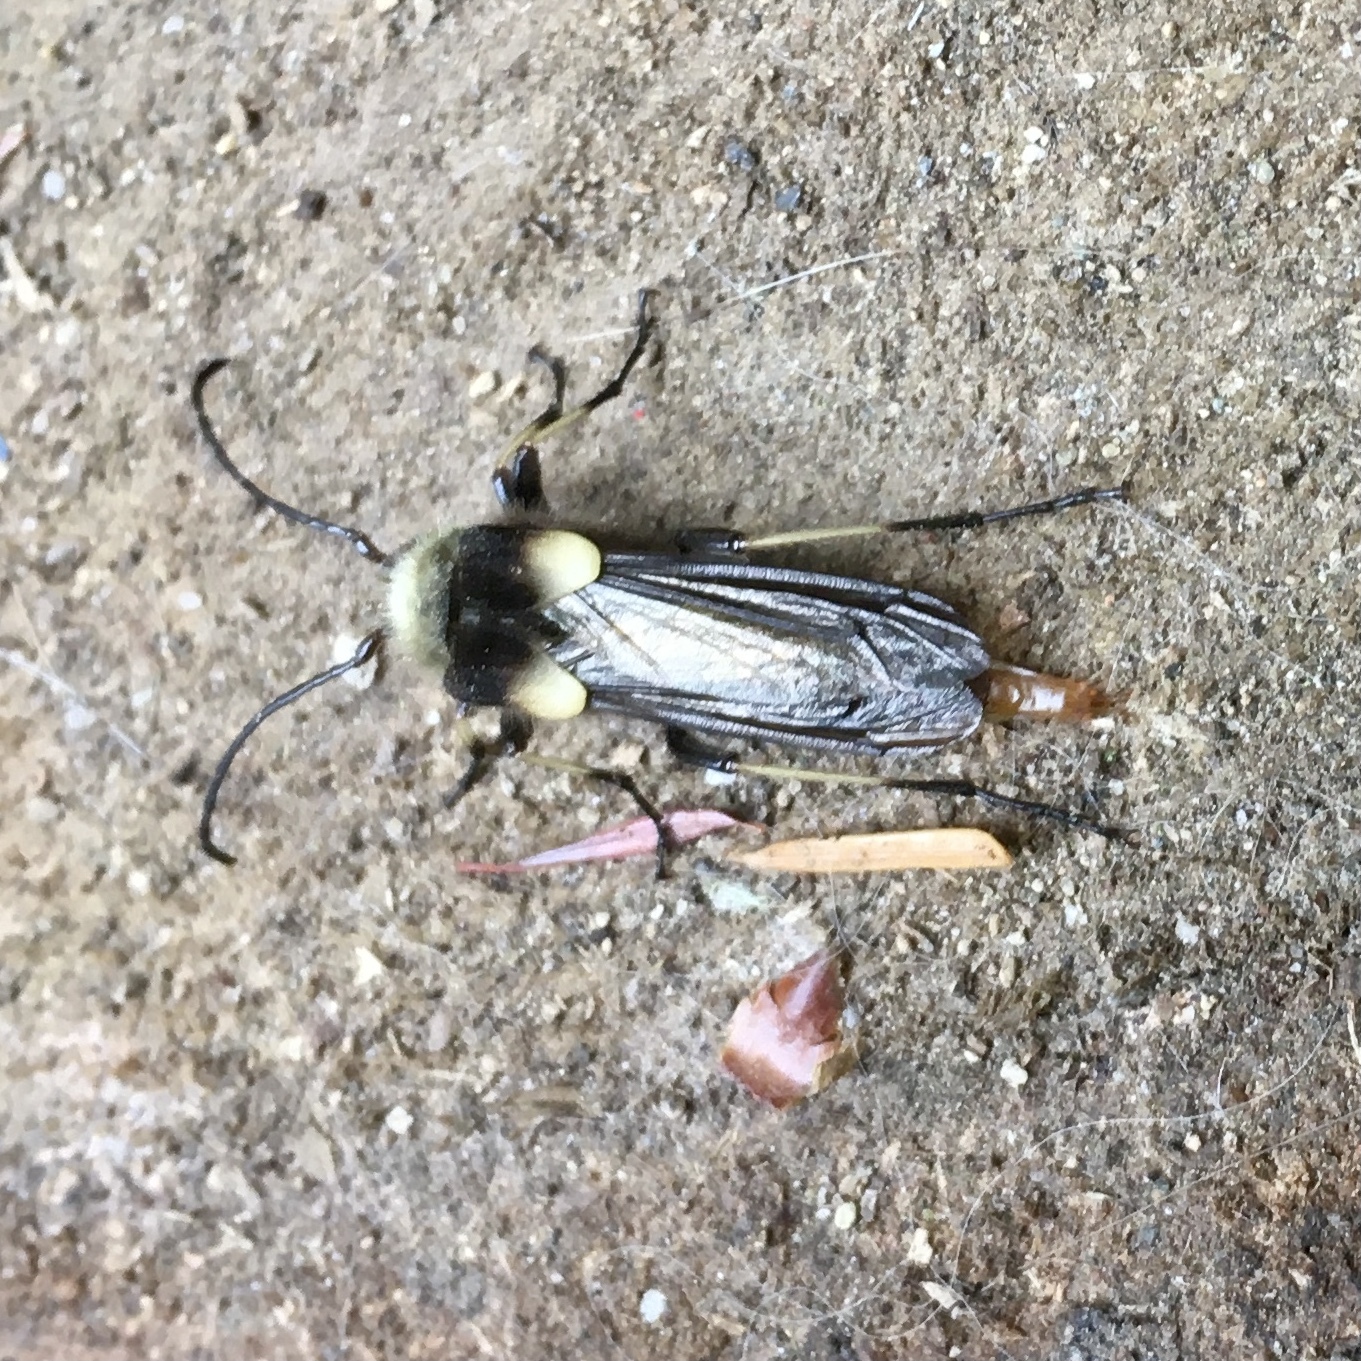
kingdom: Animalia
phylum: Arthropoda
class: Insecta
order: Coleoptera
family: Cerambycidae
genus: Ulochaetes
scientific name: Ulochaetes leoninus
